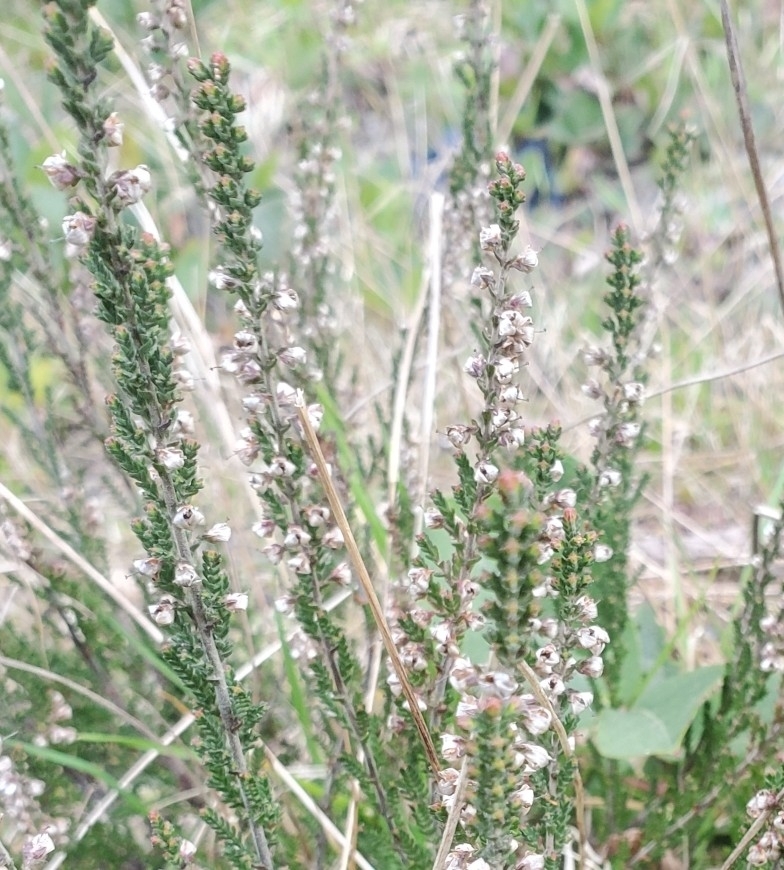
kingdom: Plantae
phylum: Tracheophyta
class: Magnoliopsida
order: Ericales
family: Ericaceae
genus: Calluna
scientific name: Calluna vulgaris
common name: Heather
